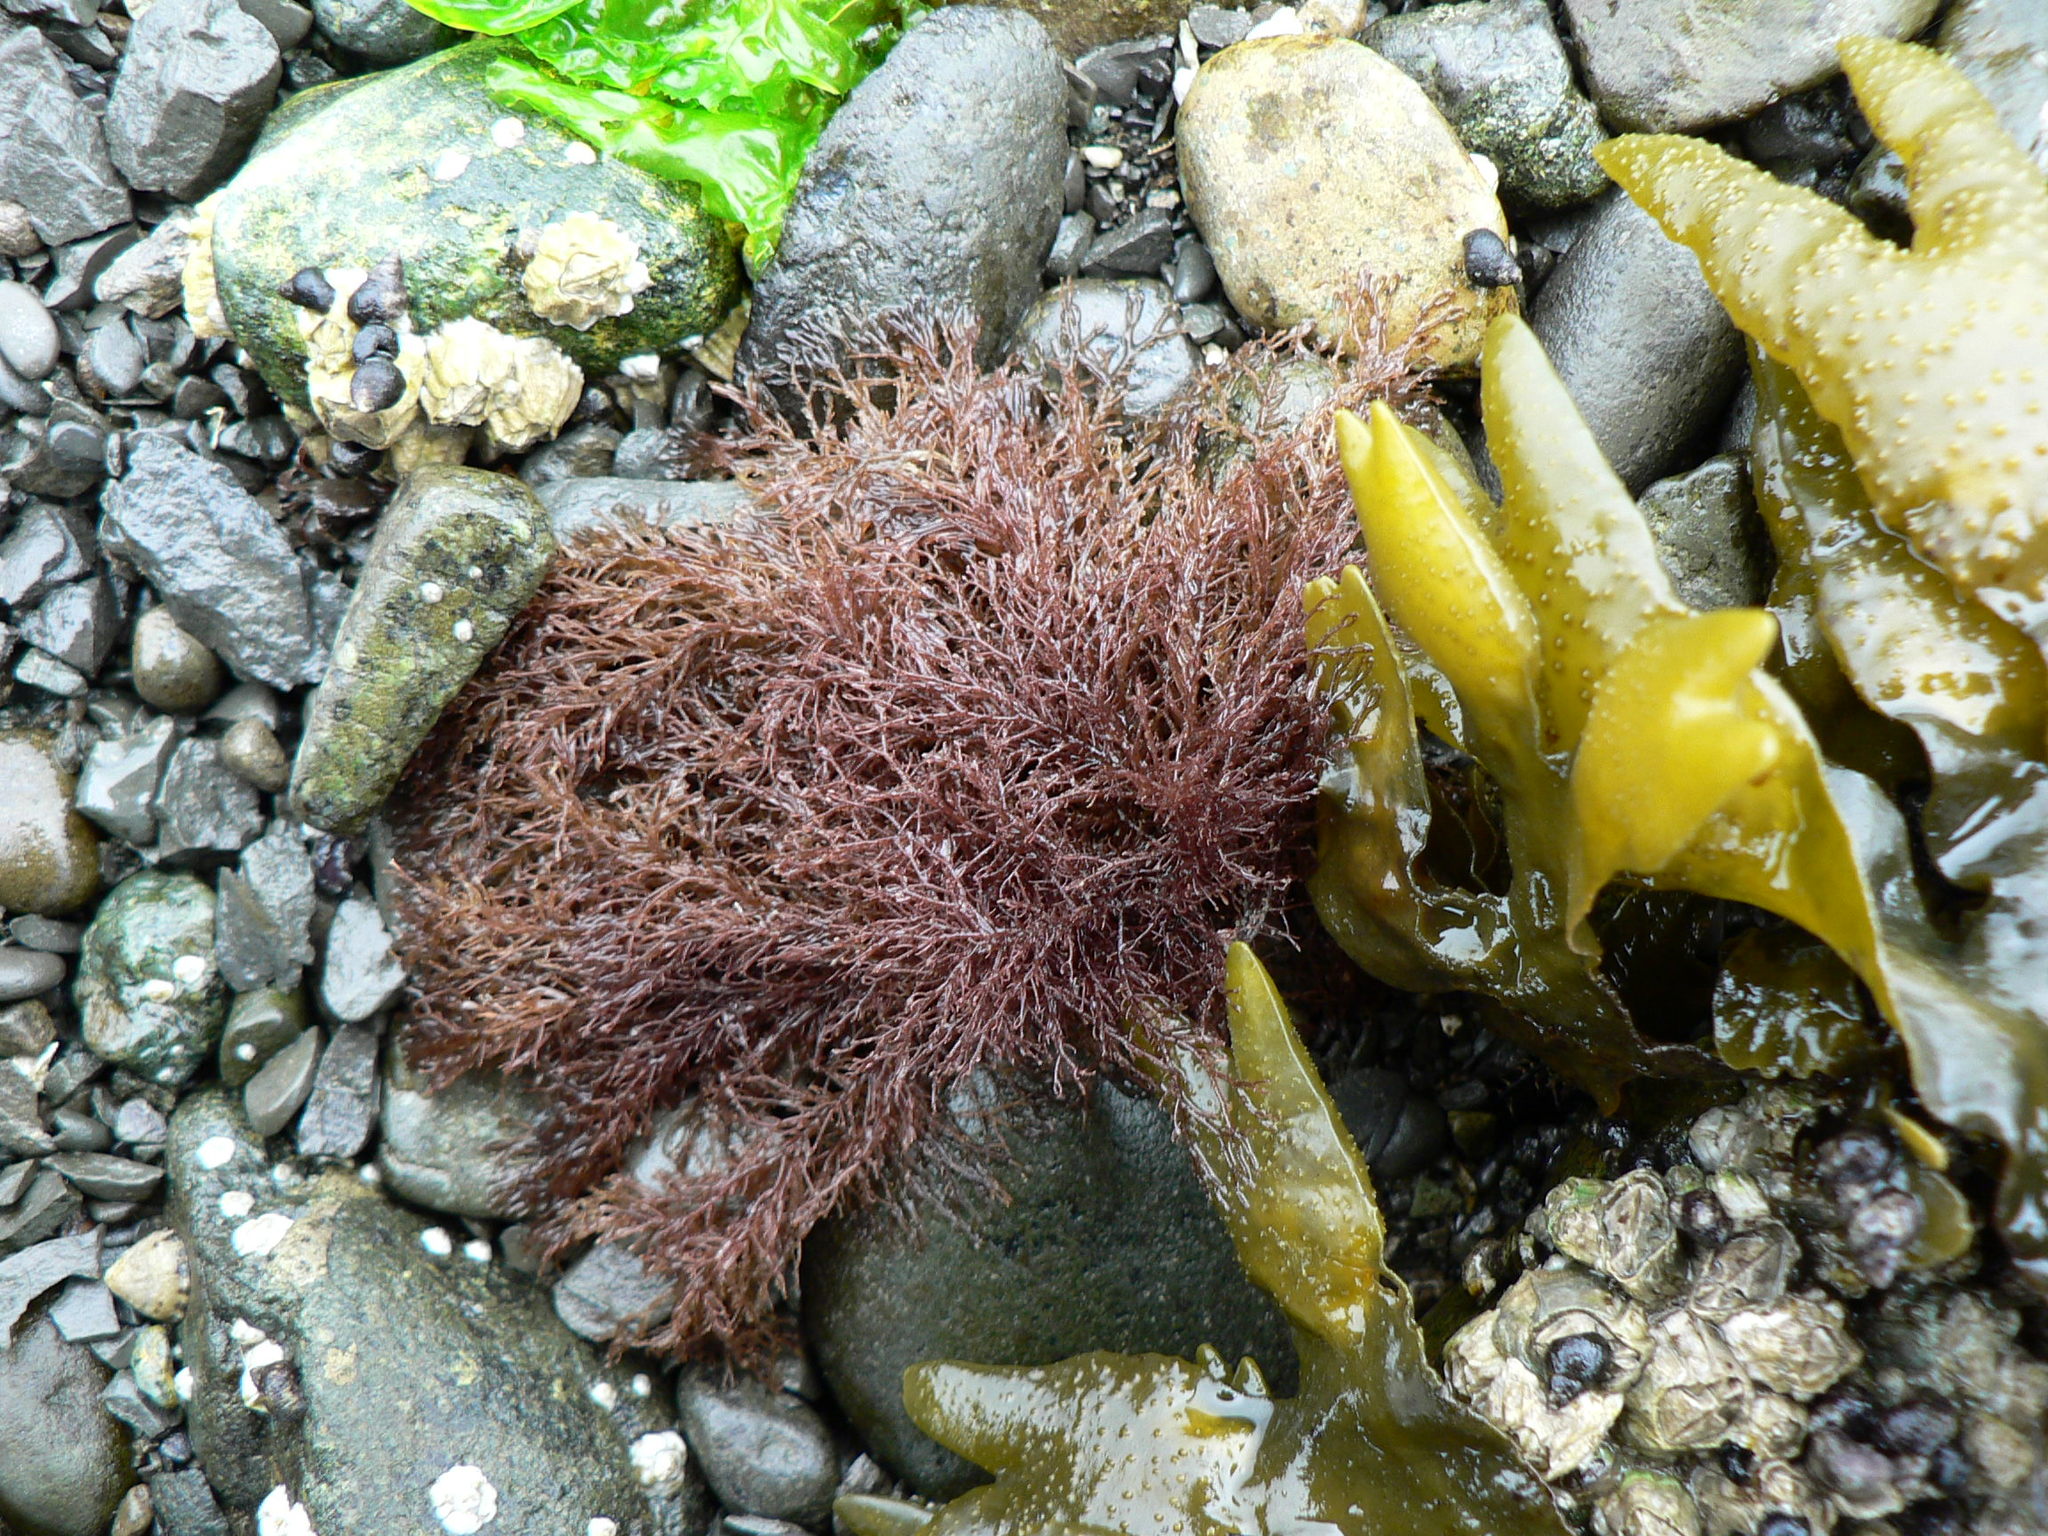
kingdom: Plantae
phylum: Rhodophyta
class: Florideophyceae
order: Gigartinales
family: Endocladiaceae
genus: Endocladia
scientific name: Endocladia muricata
